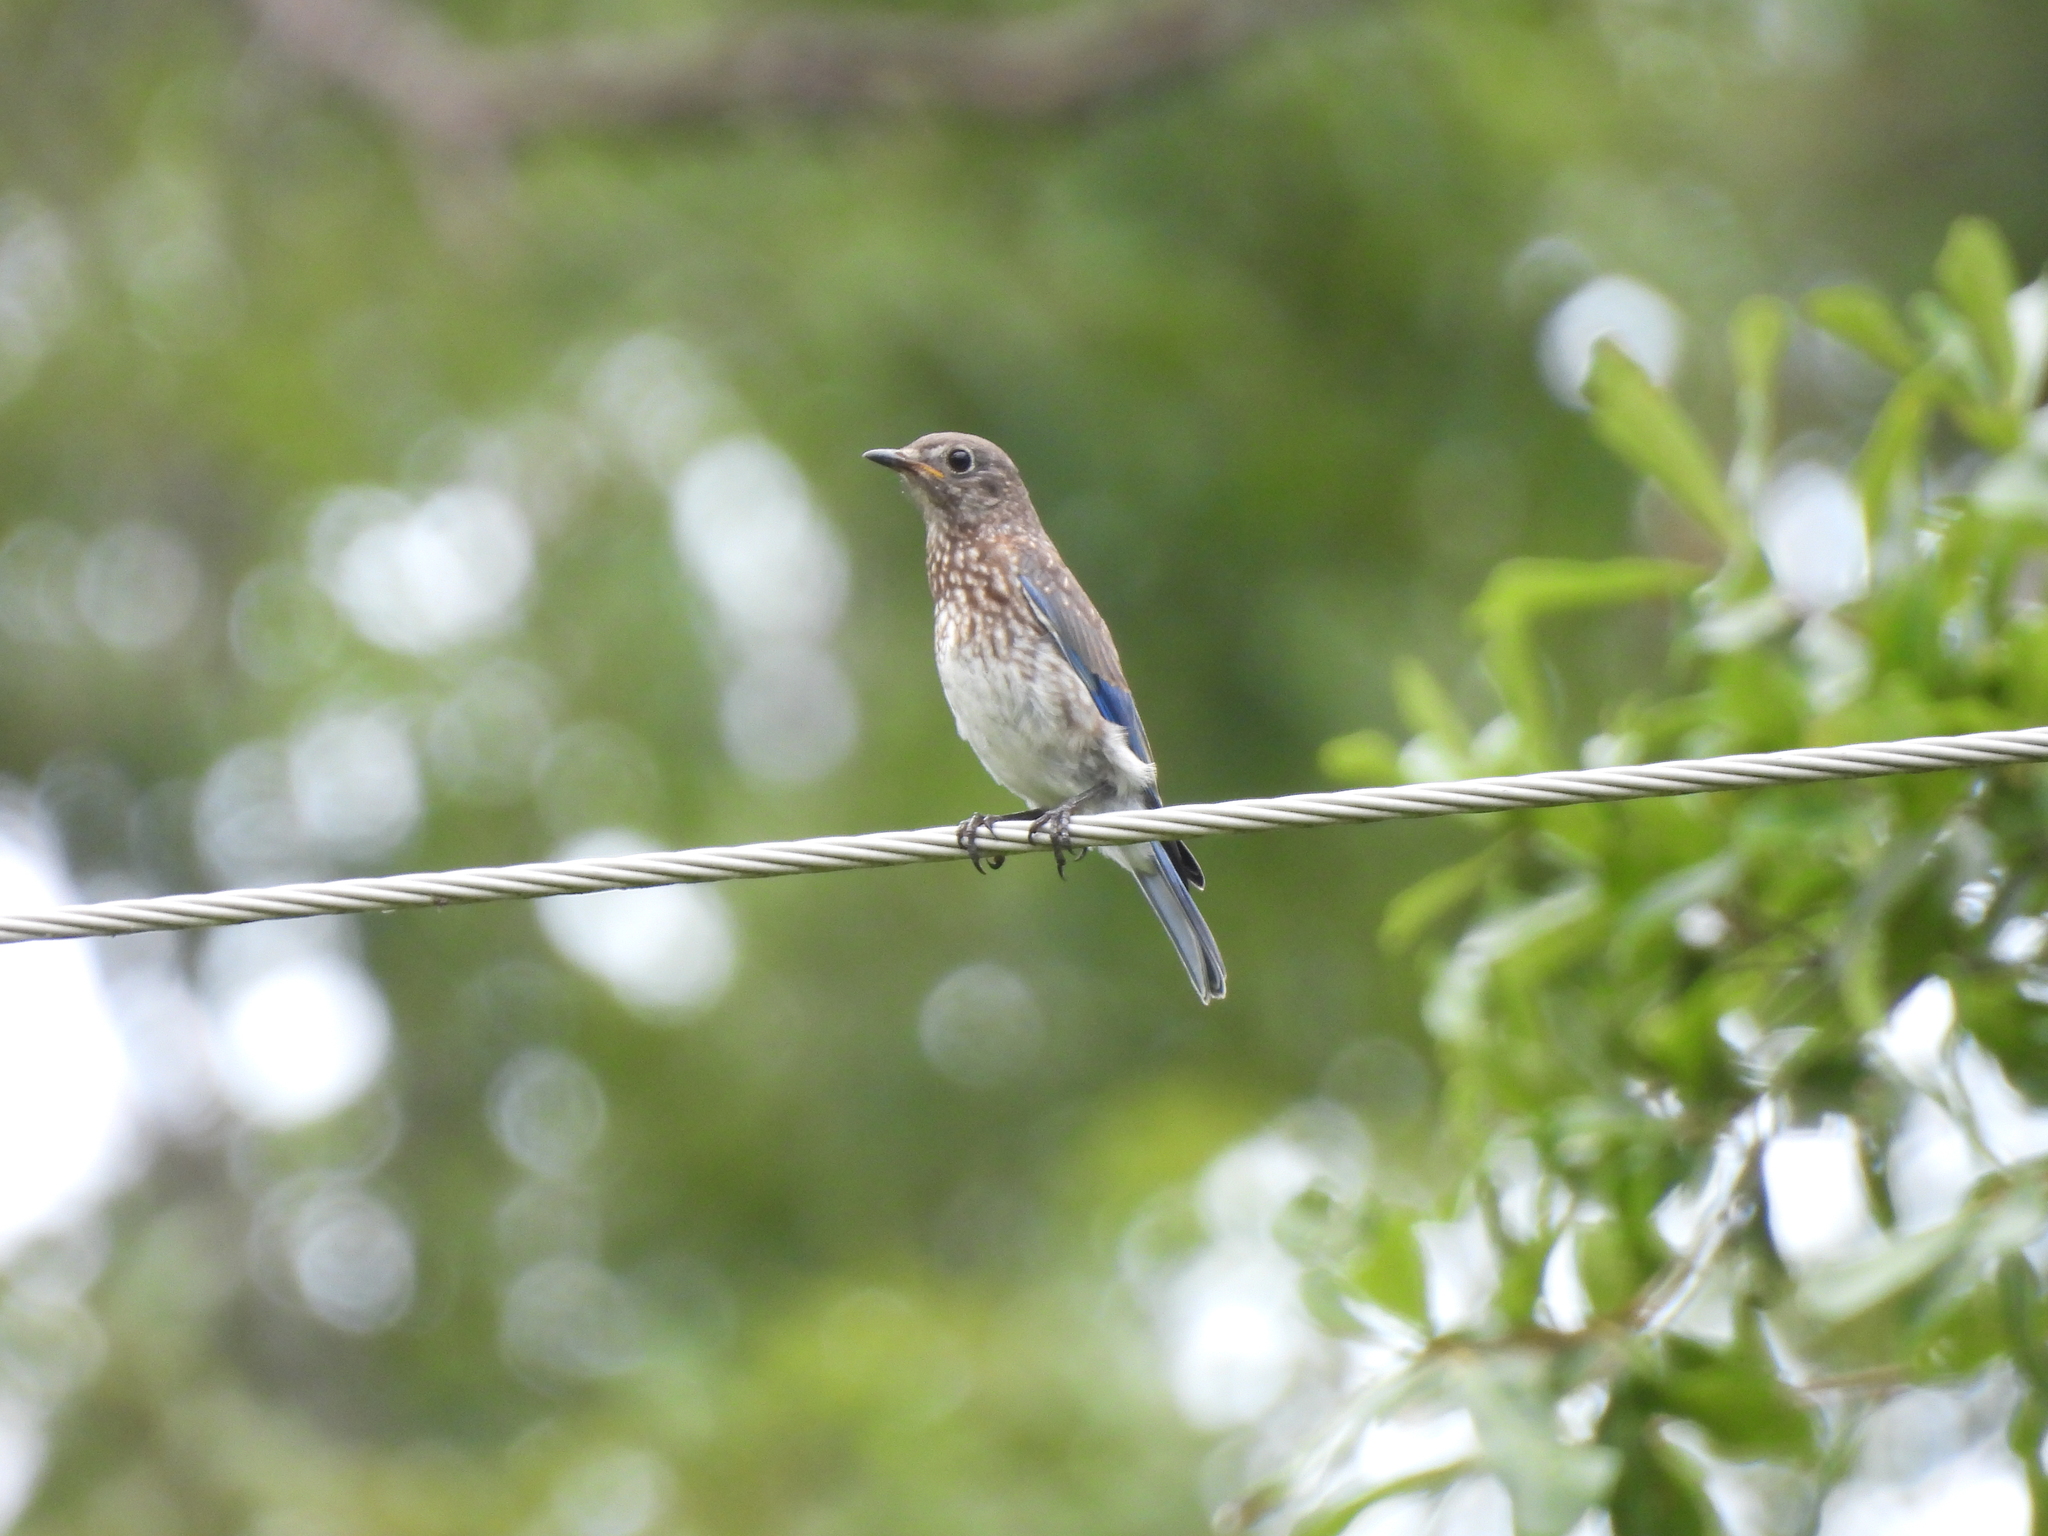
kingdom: Animalia
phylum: Chordata
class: Aves
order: Passeriformes
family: Turdidae
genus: Sialia
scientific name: Sialia sialis
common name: Eastern bluebird
